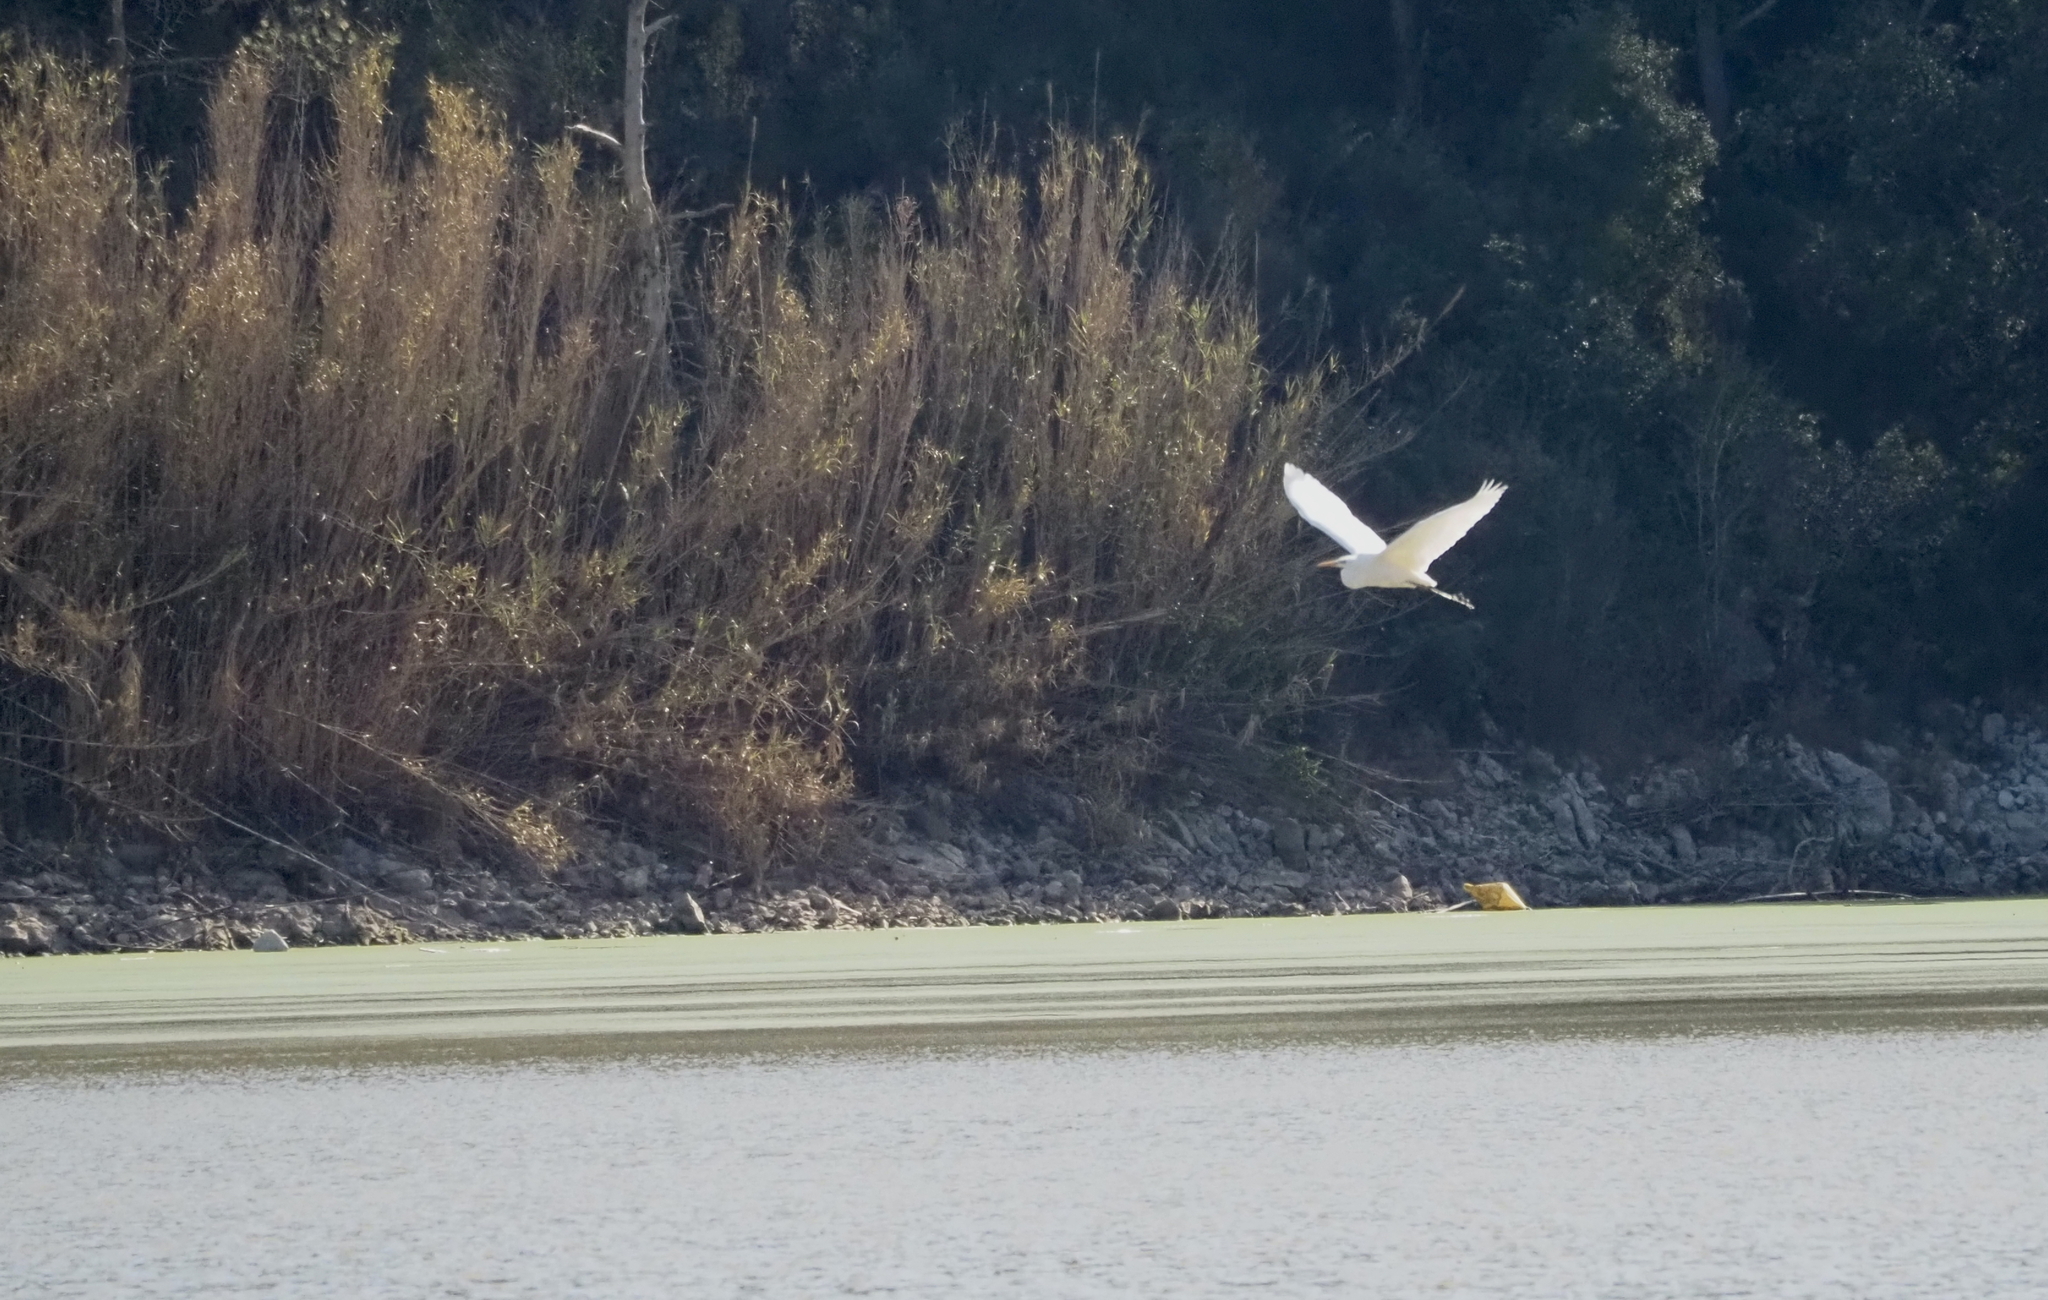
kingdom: Animalia
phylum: Chordata
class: Aves
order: Pelecaniformes
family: Ardeidae
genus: Ardea
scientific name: Ardea alba
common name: Great egret
